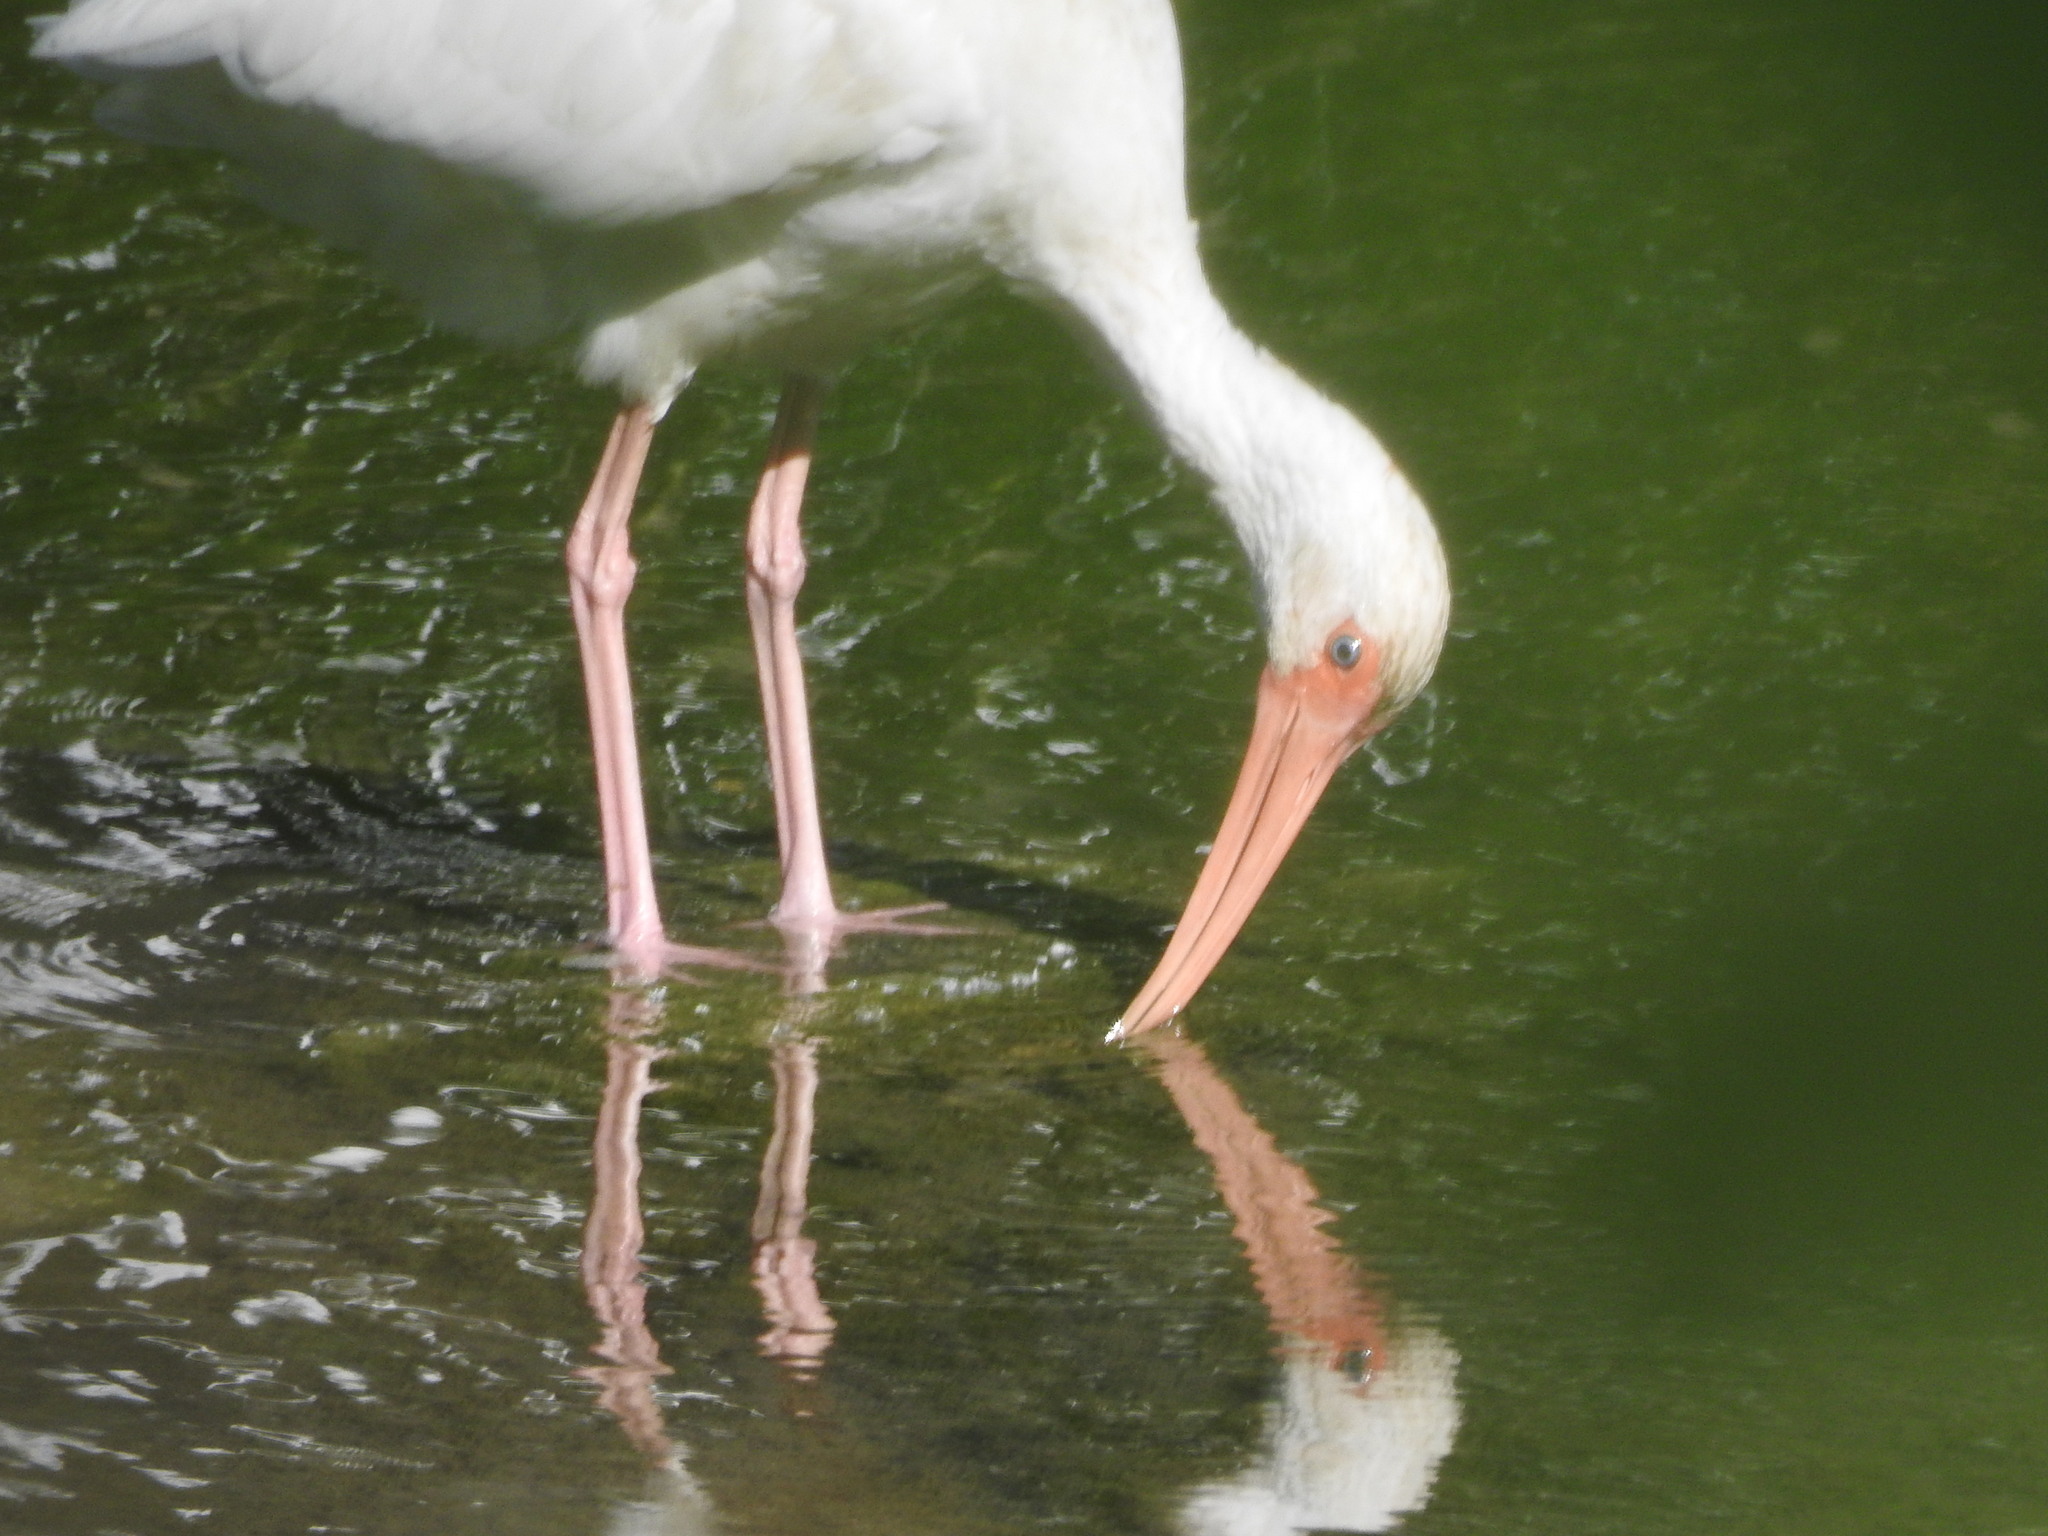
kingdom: Animalia
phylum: Chordata
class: Aves
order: Pelecaniformes
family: Threskiornithidae
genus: Eudocimus
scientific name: Eudocimus albus
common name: White ibis
